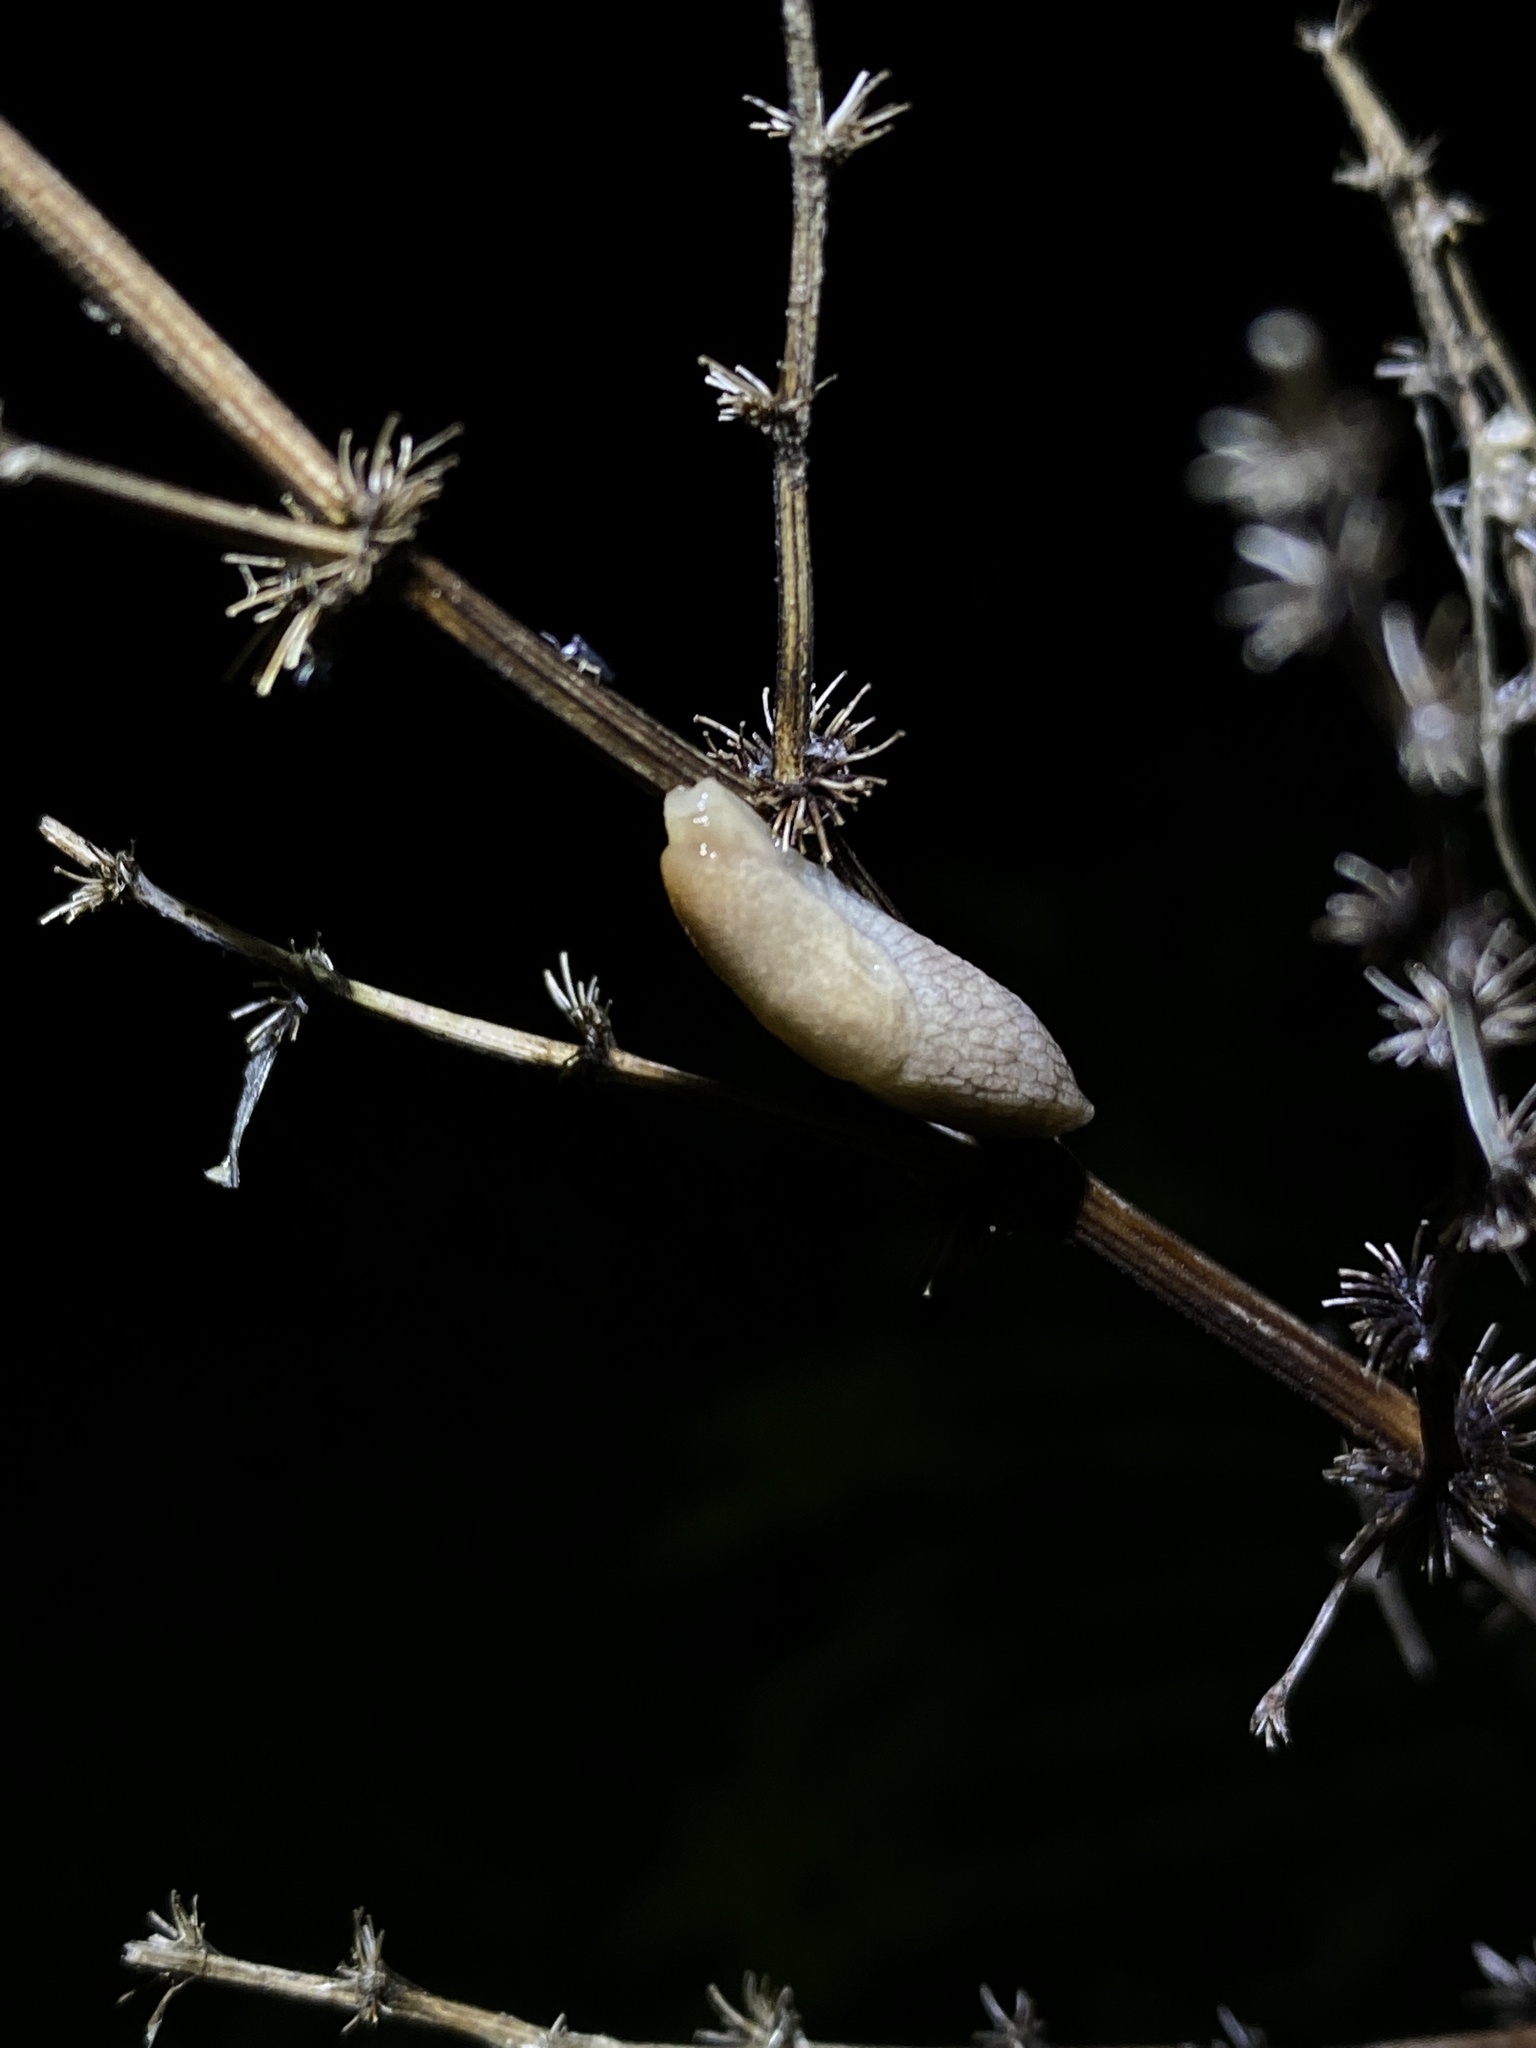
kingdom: Animalia
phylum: Mollusca
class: Gastropoda
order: Stylommatophora
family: Agriolimacidae
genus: Deroceras
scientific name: Deroceras reticulatum
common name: Gray field slug
